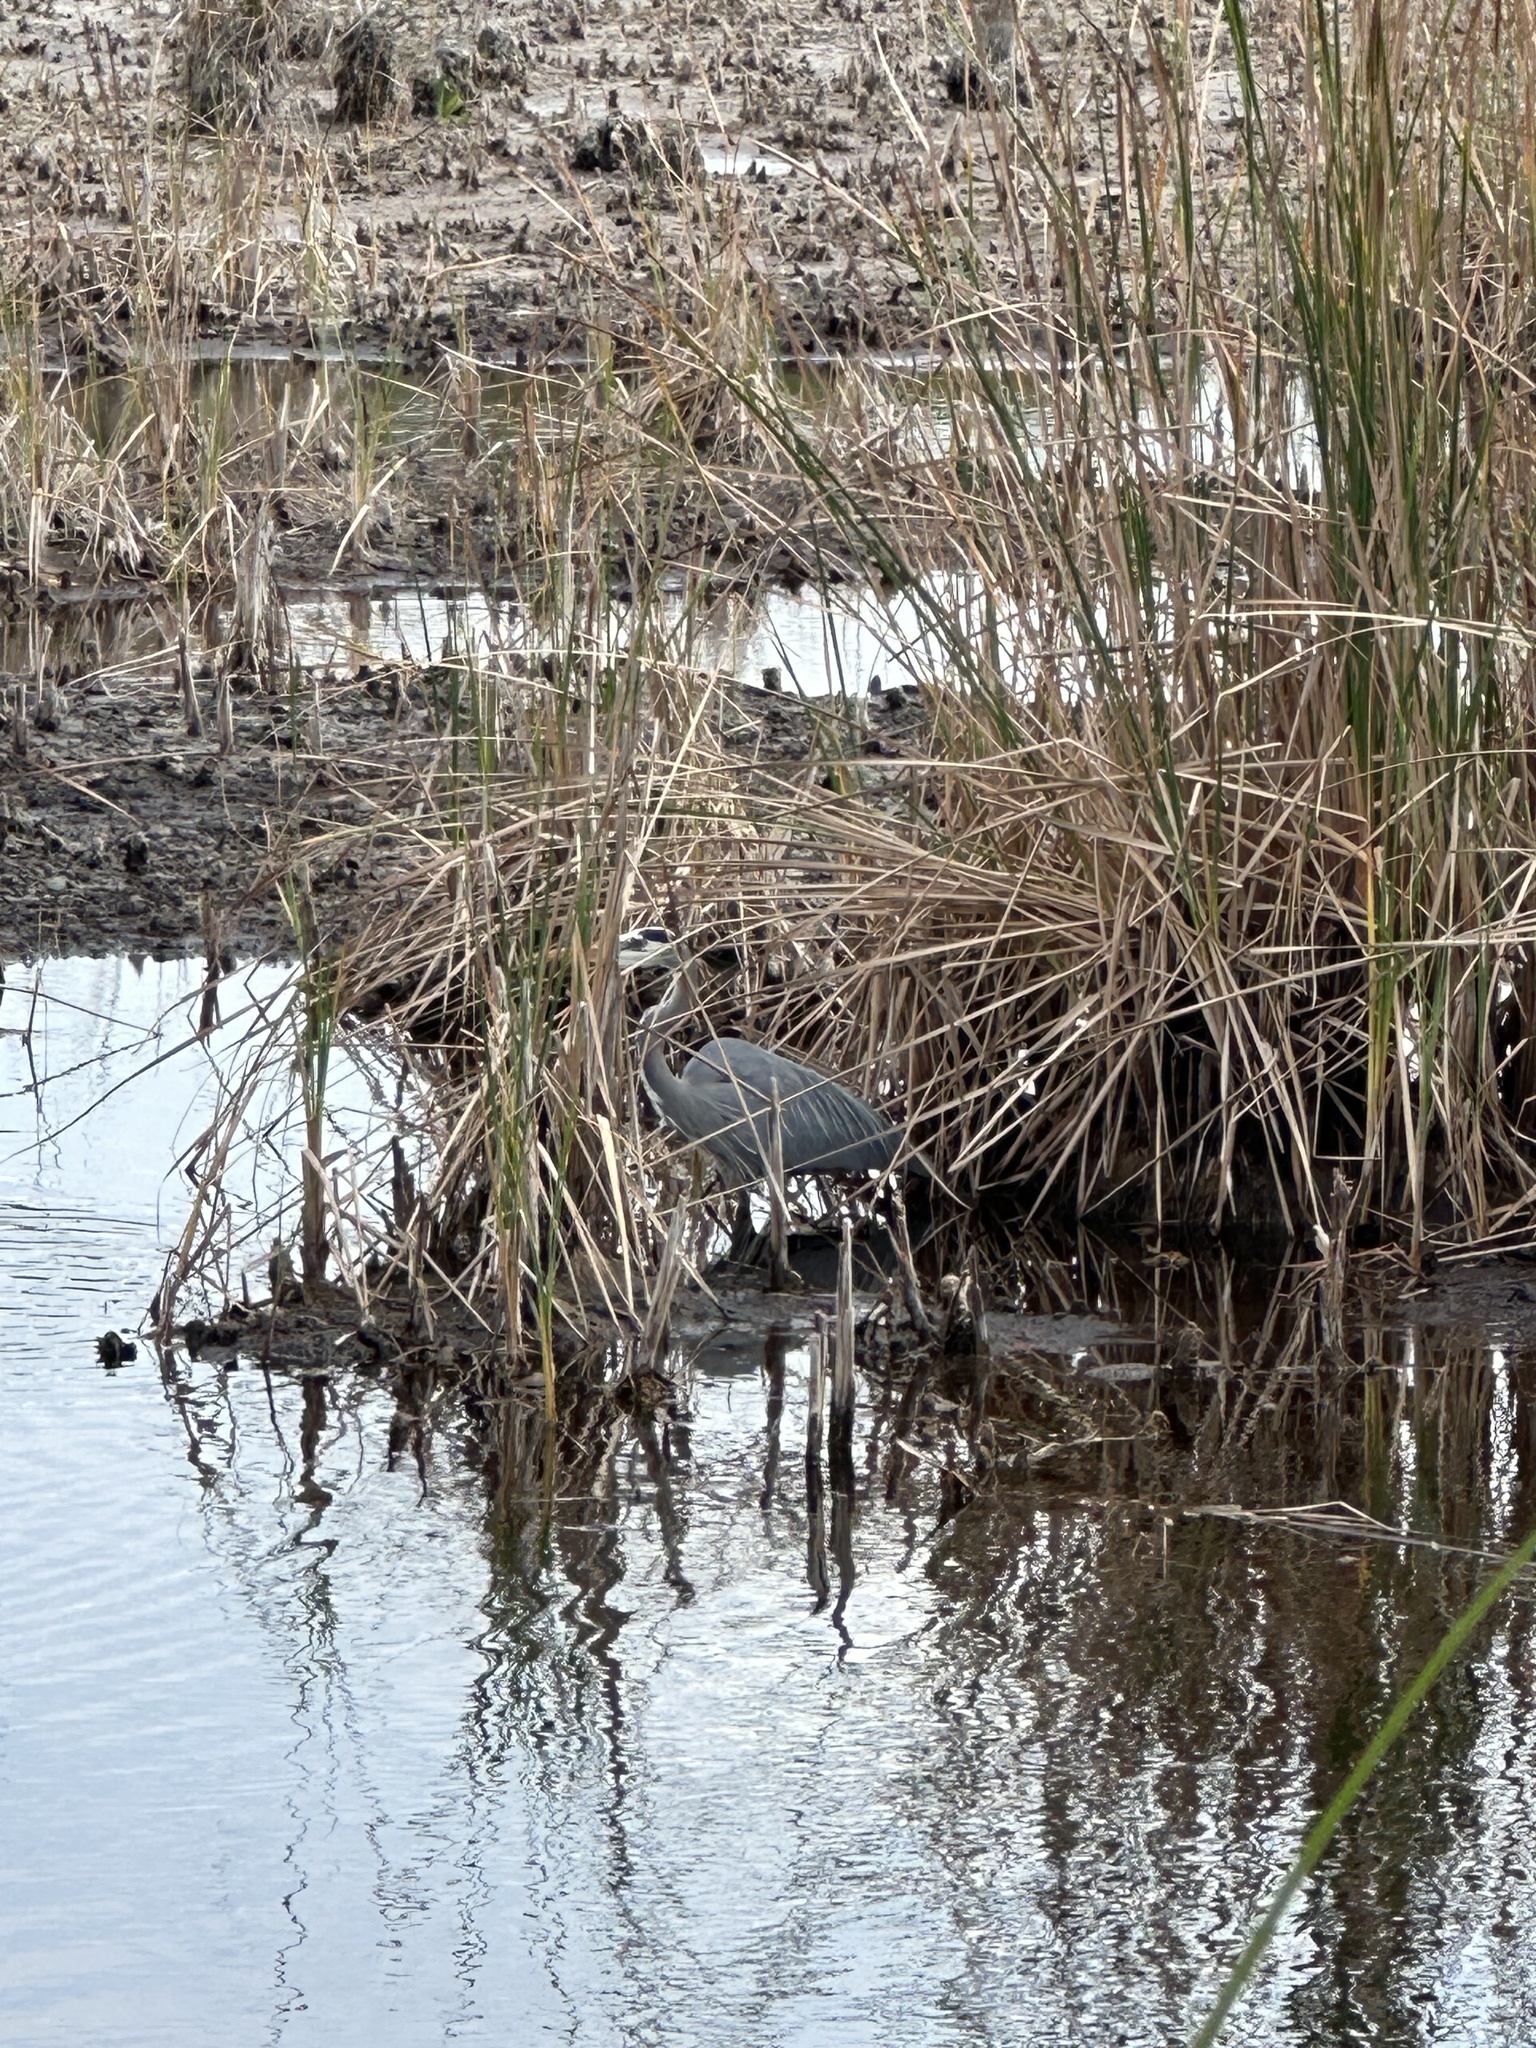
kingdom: Animalia
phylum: Chordata
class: Aves
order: Pelecaniformes
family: Ardeidae
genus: Ardea
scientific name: Ardea herodias
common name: Great blue heron
